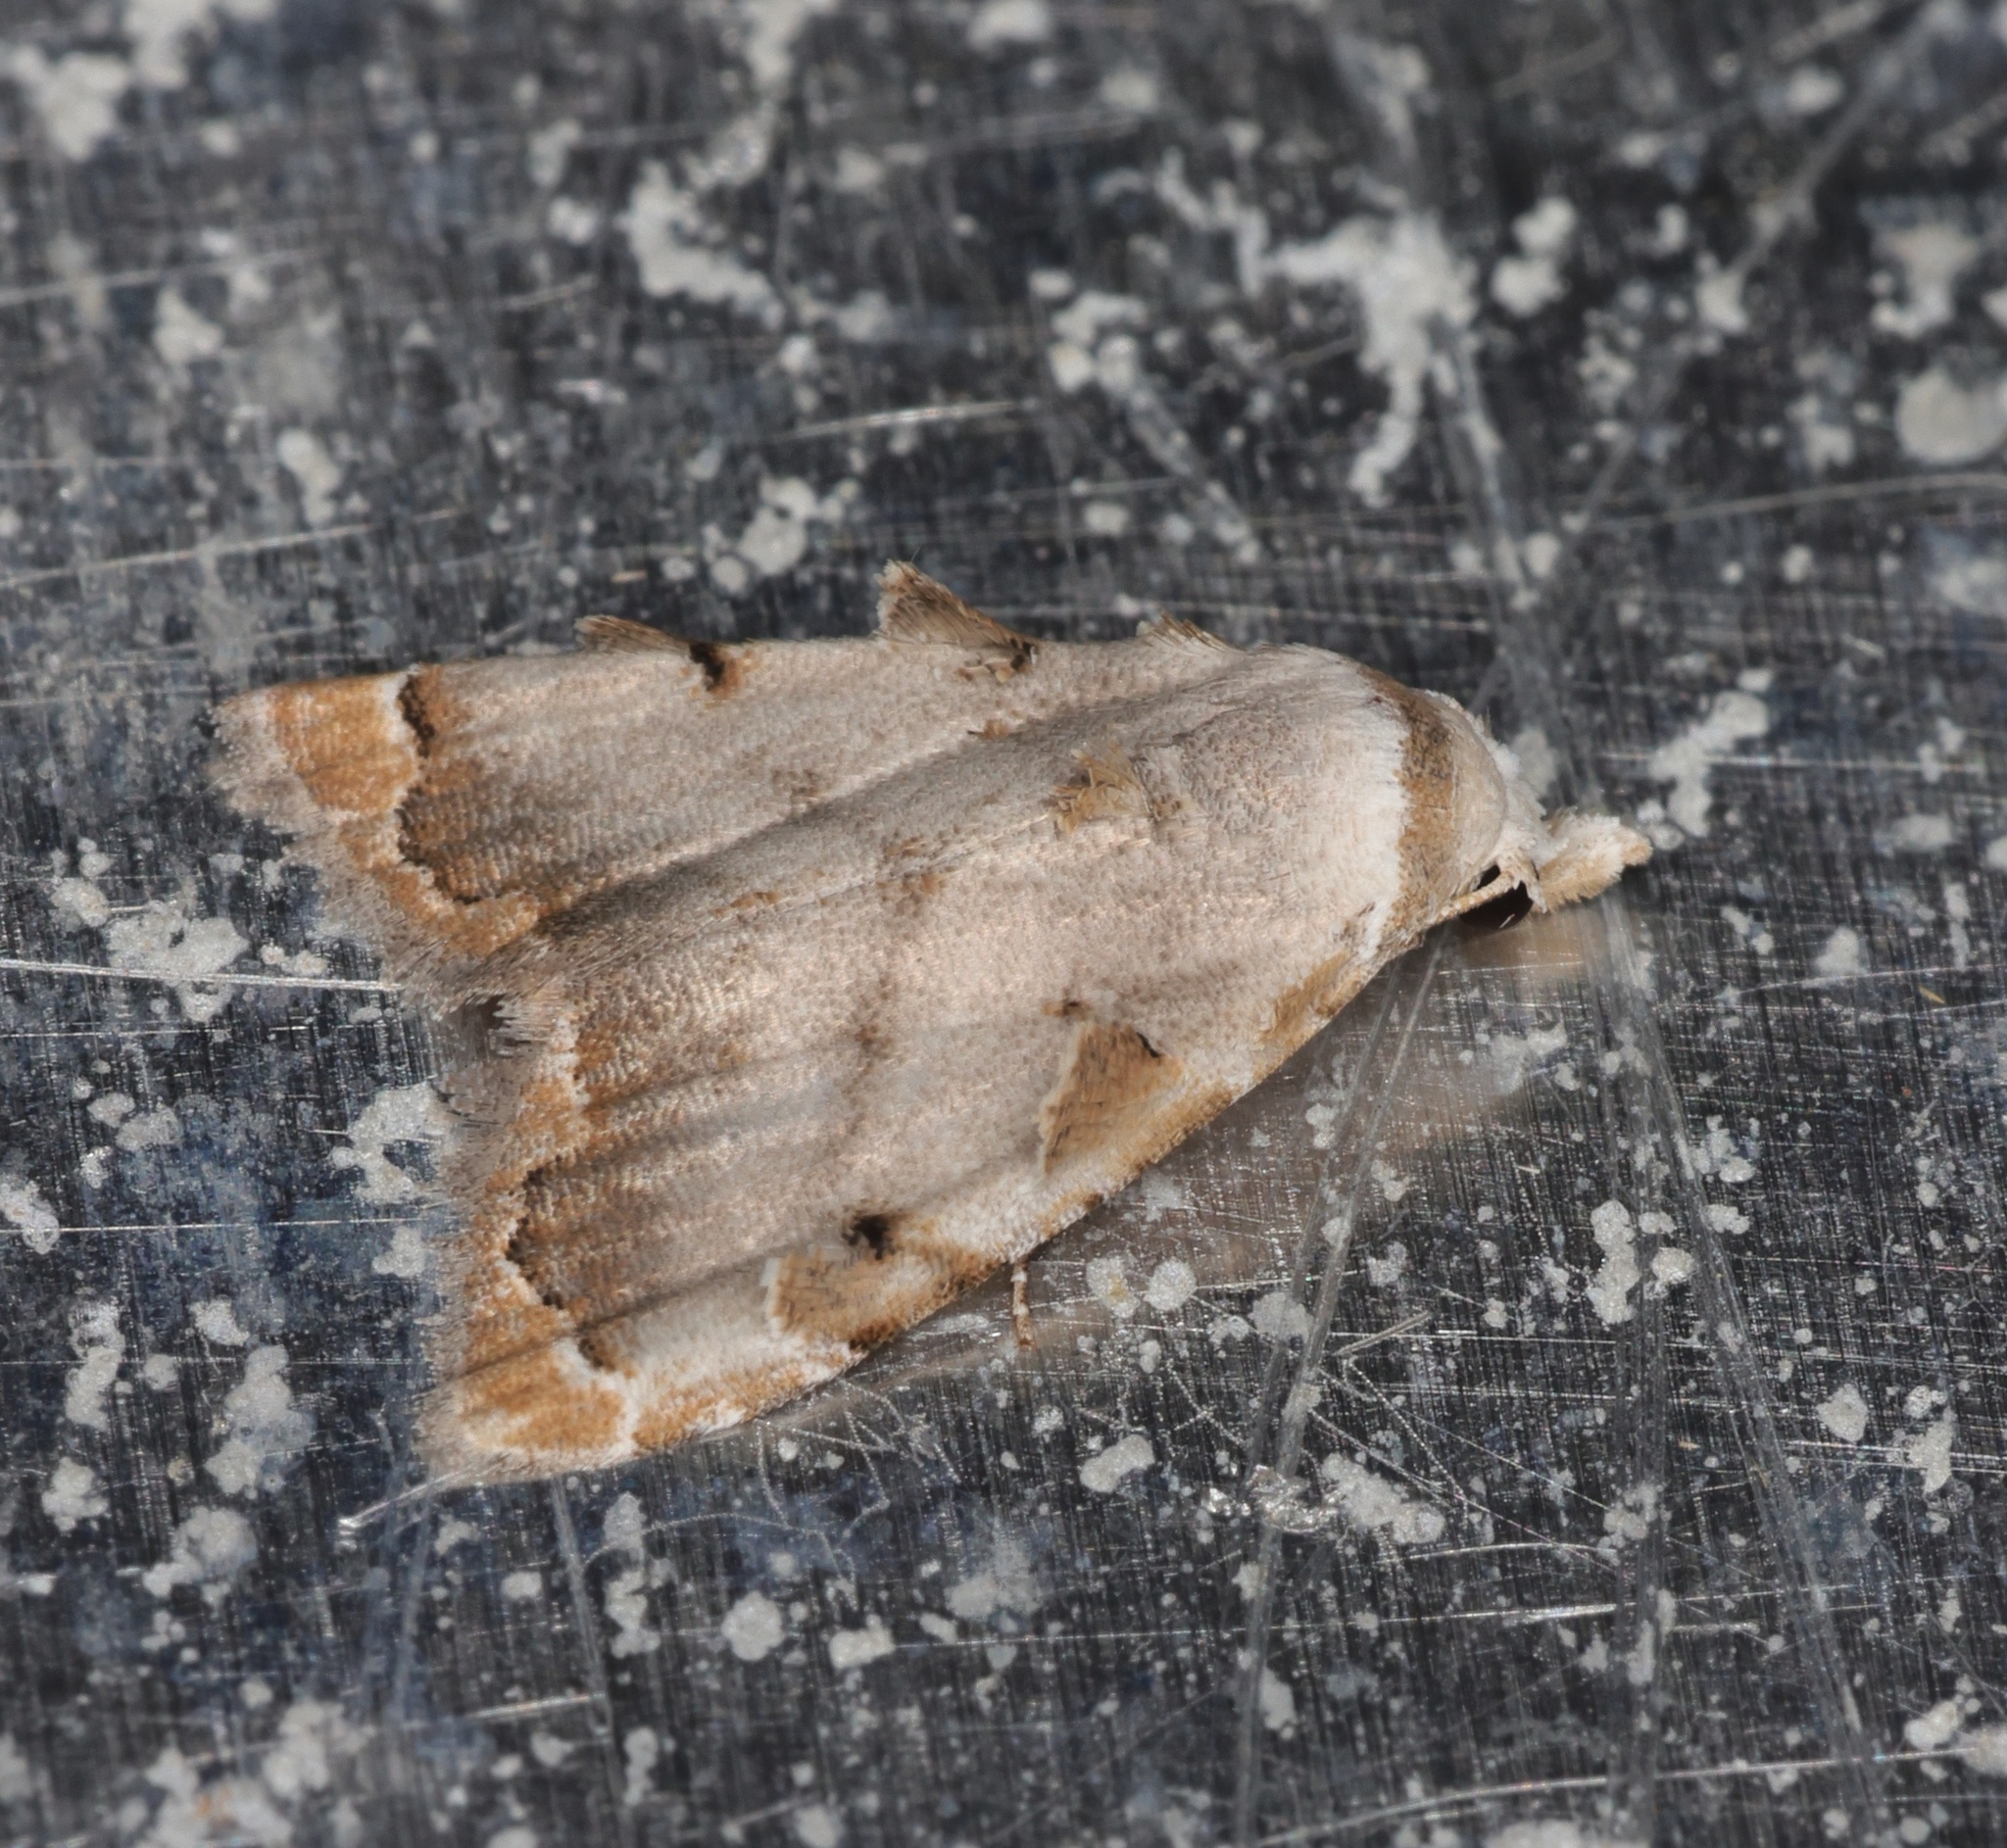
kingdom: Animalia
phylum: Arthropoda
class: Insecta
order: Lepidoptera
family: Nolidae
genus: Nola
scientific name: Nola marginata
